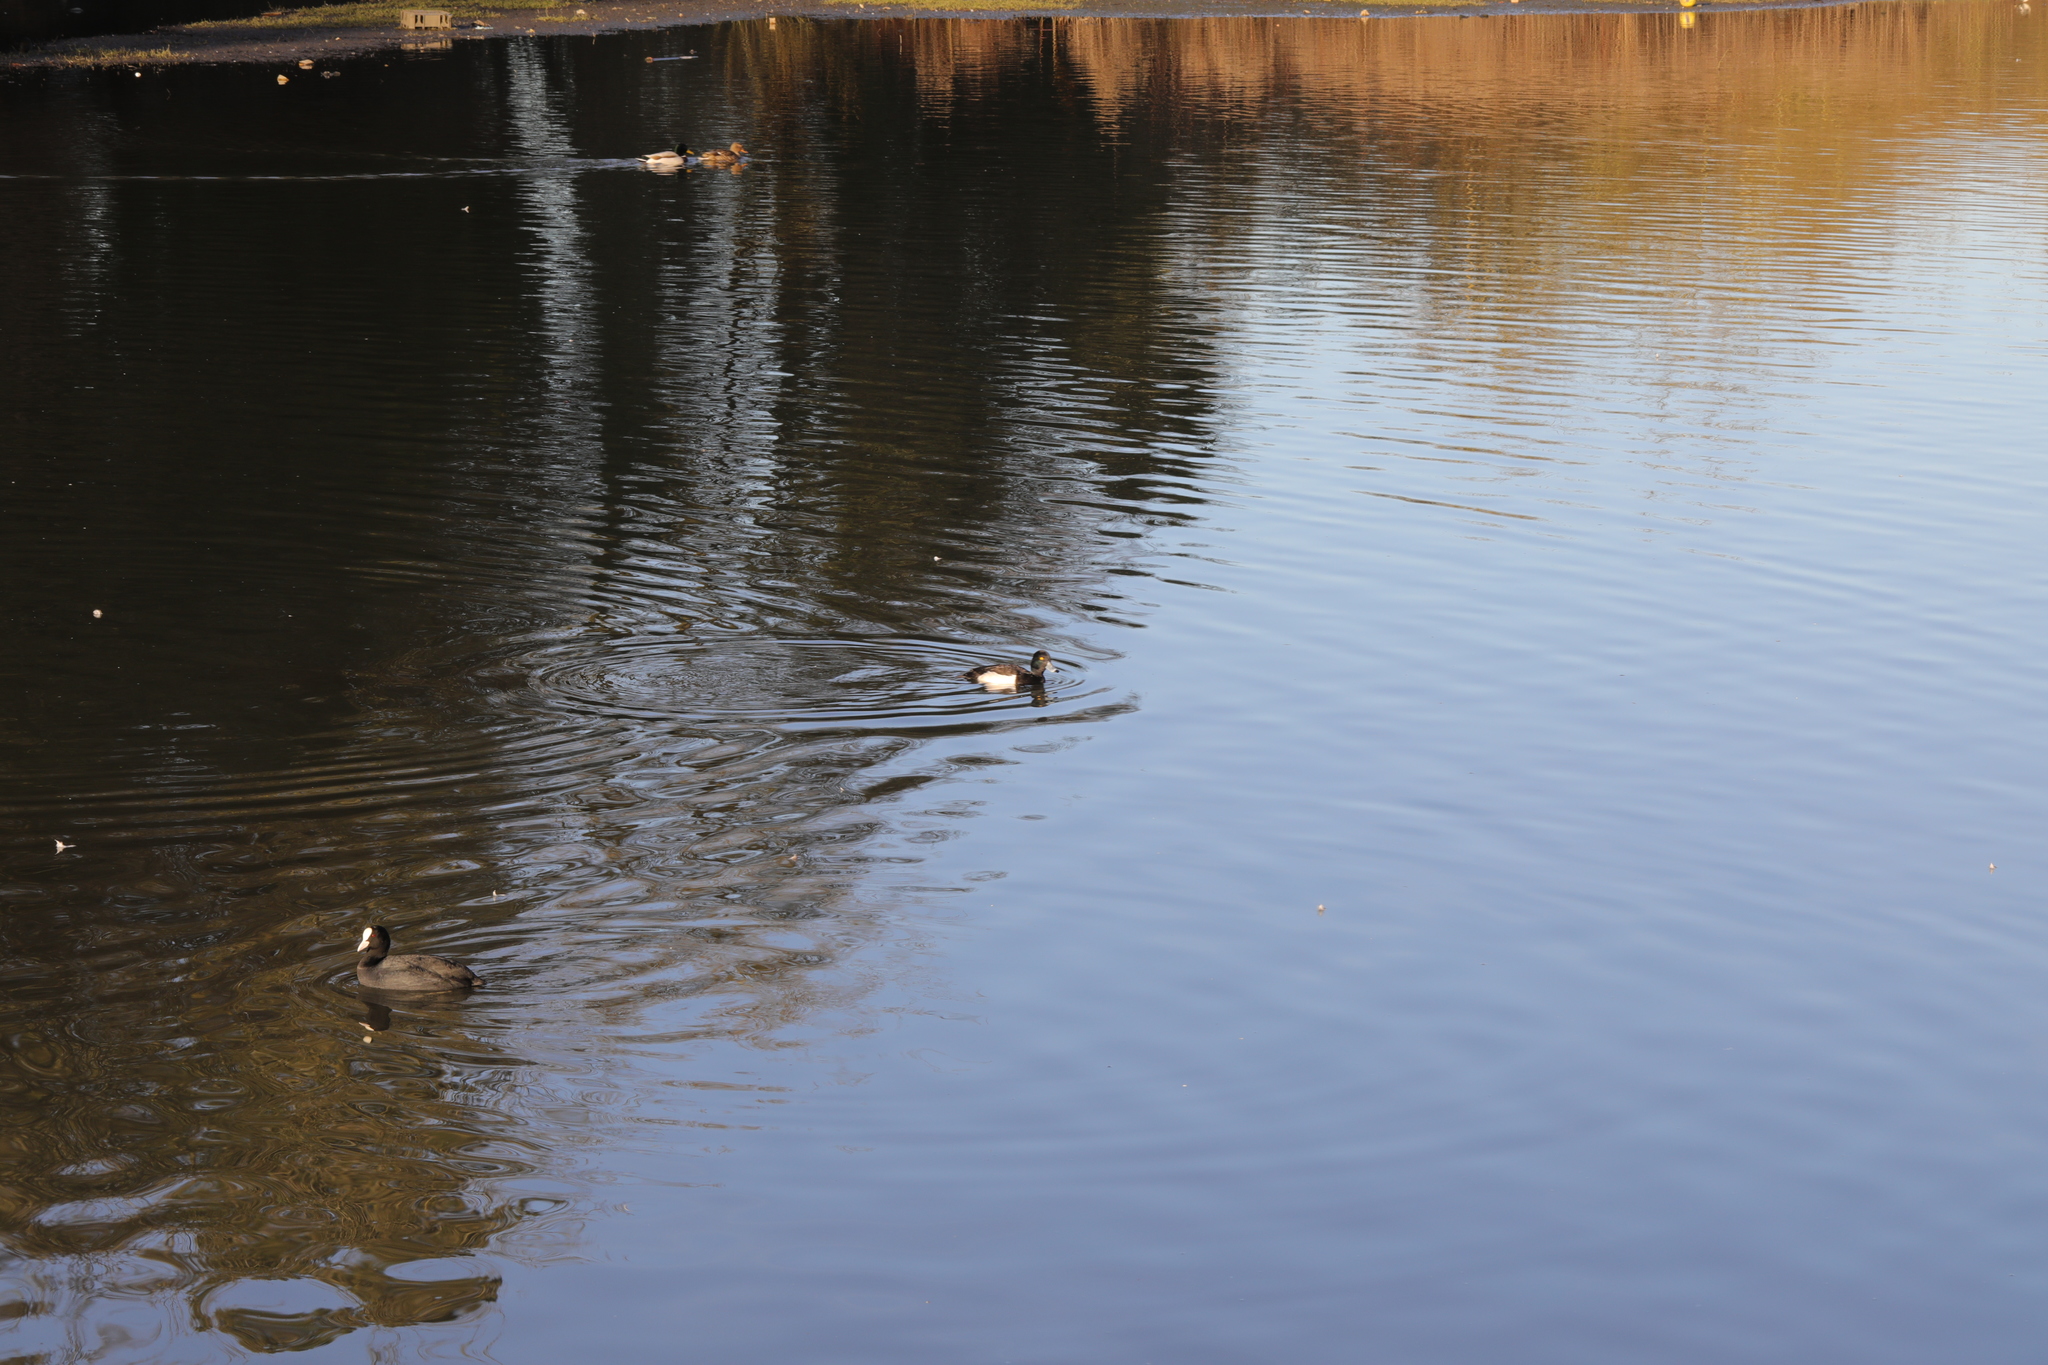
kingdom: Animalia
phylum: Chordata
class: Aves
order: Anseriformes
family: Anatidae
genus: Aythya
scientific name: Aythya fuligula
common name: Tufted duck
